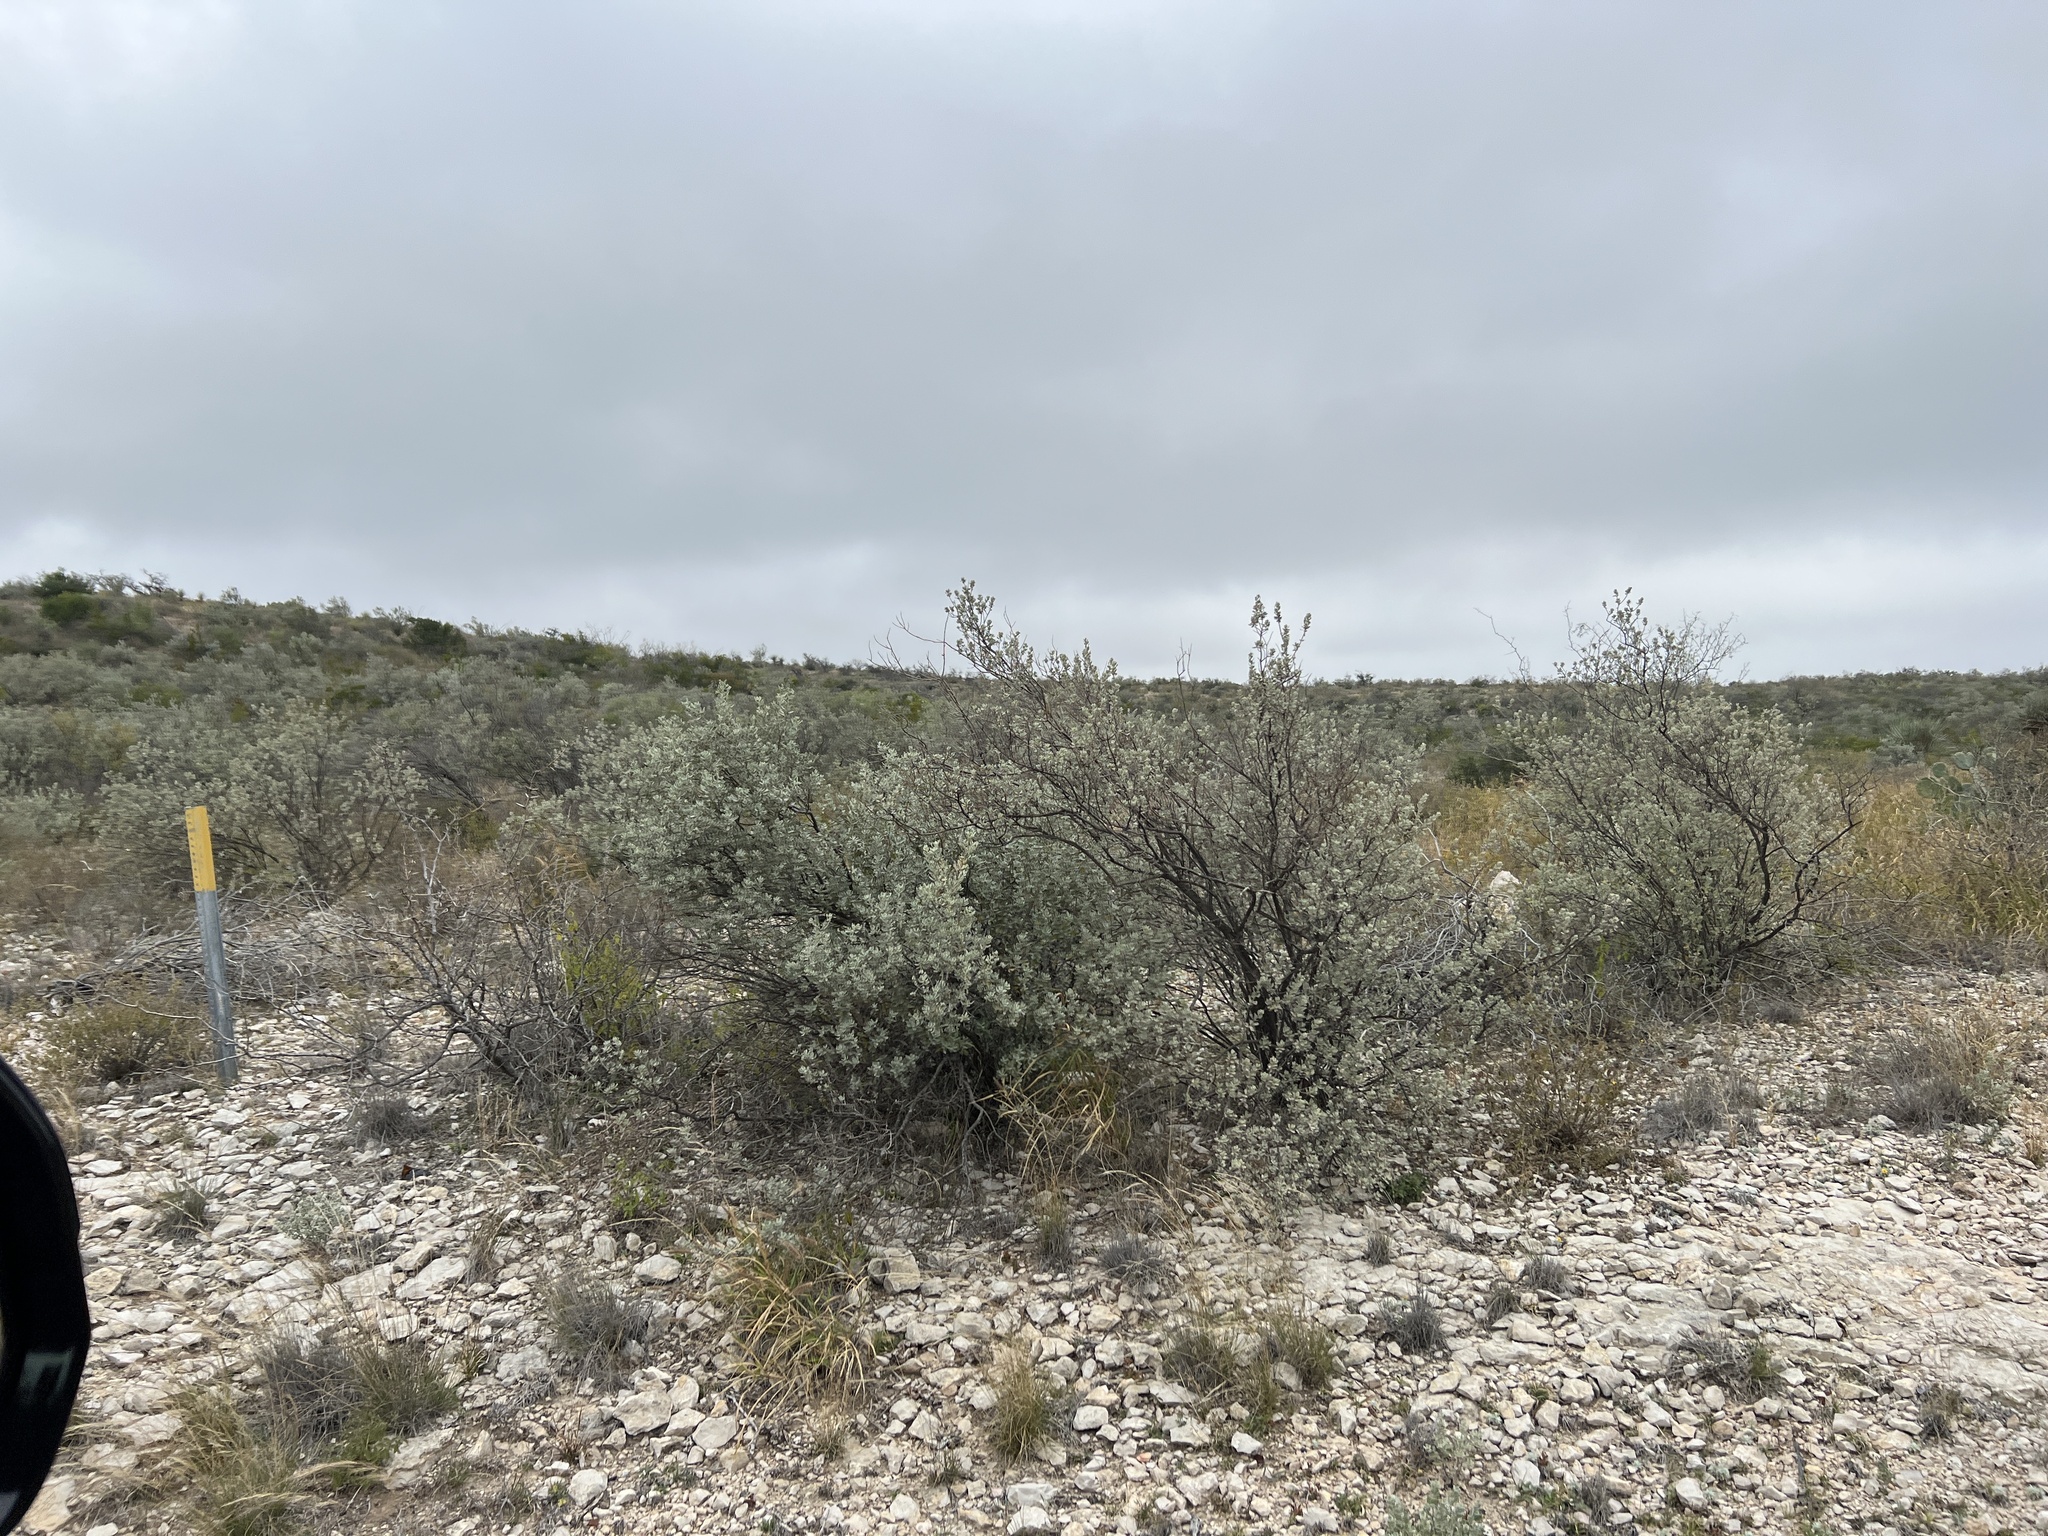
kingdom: Plantae
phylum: Tracheophyta
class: Magnoliopsida
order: Lamiales
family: Scrophulariaceae
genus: Leucophyllum
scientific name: Leucophyllum frutescens
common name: Texas silverleaf
